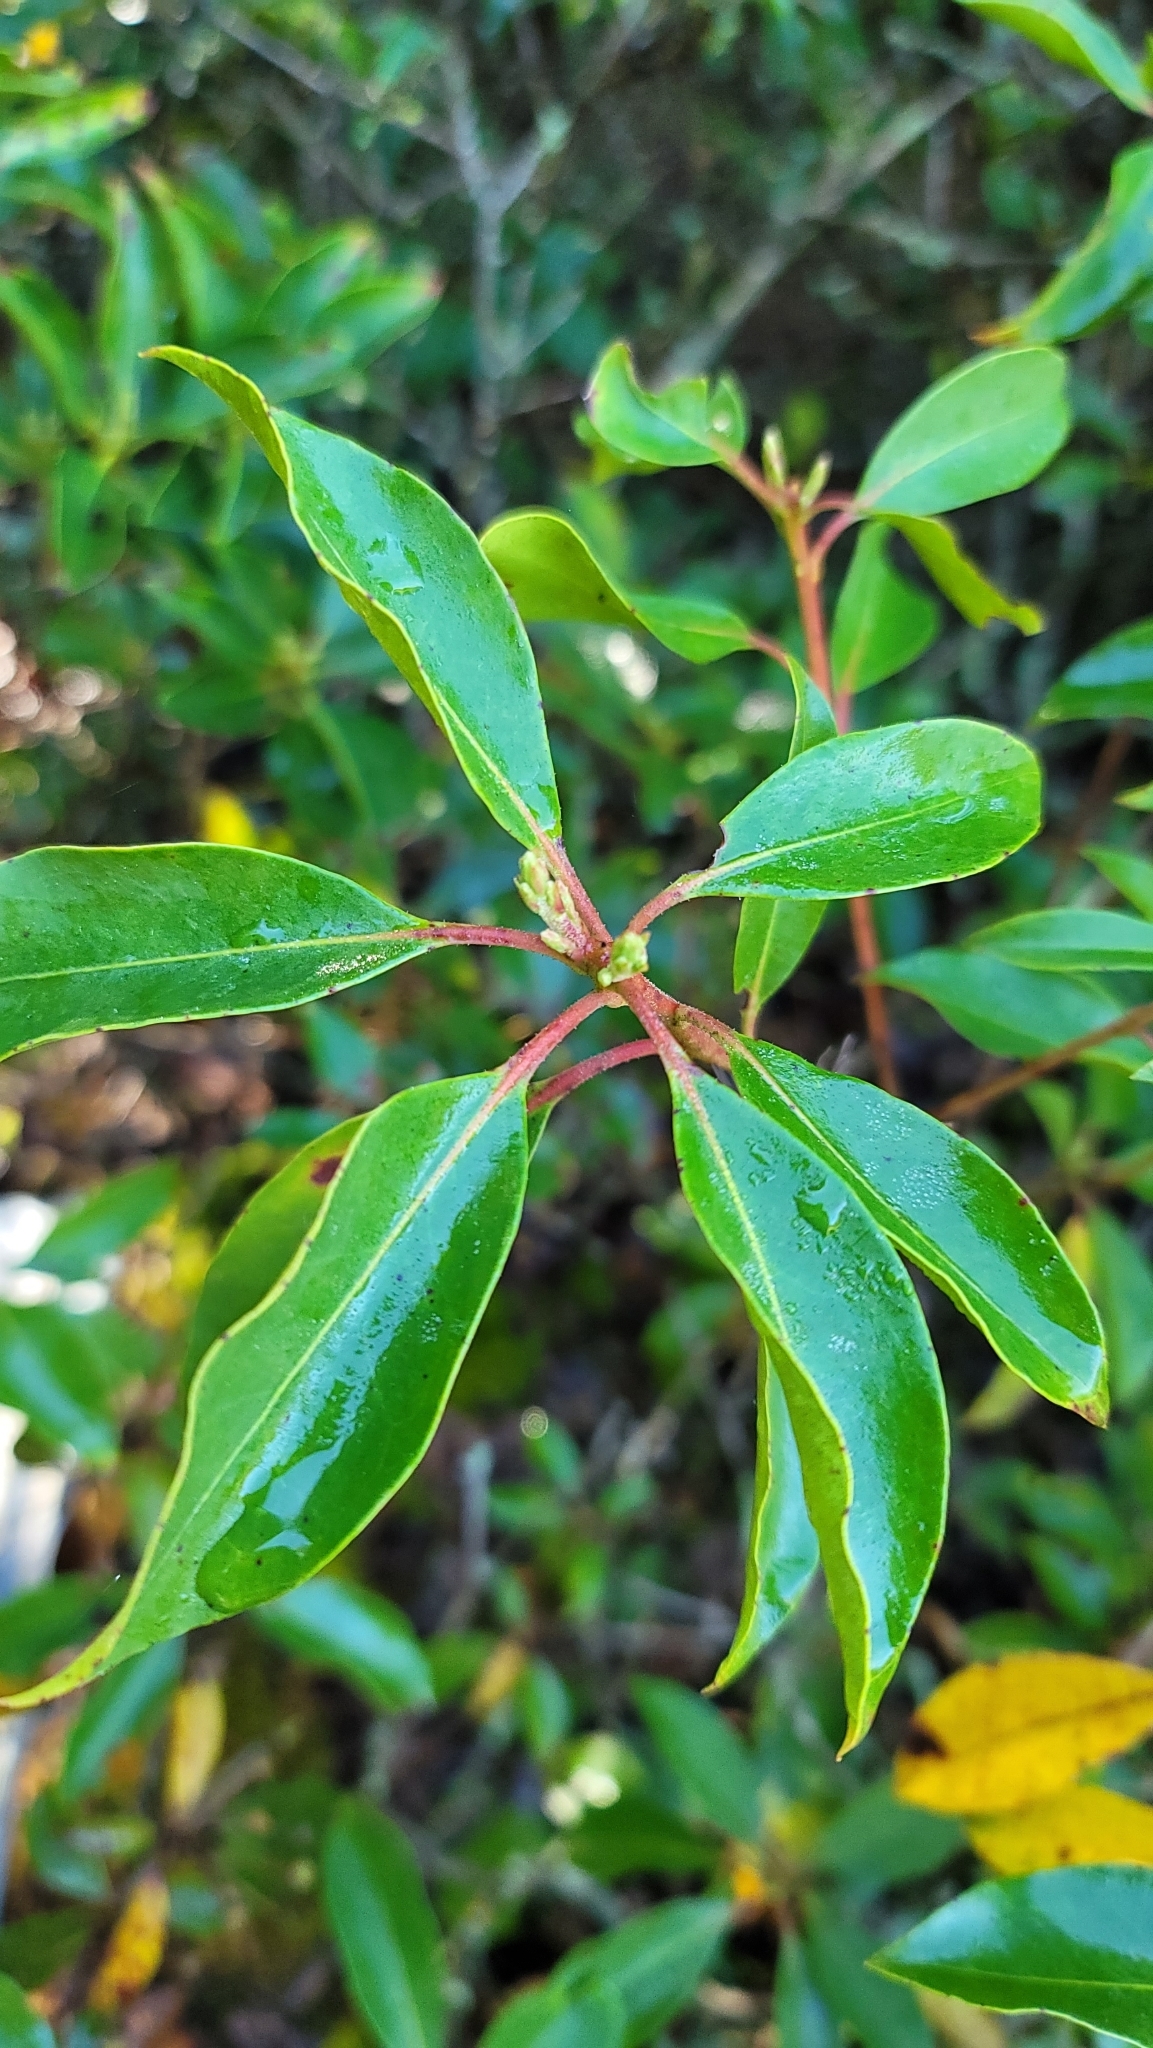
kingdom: Plantae
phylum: Tracheophyta
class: Magnoliopsida
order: Ericales
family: Ericaceae
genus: Kalmia
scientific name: Kalmia latifolia
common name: Mountain-laurel
